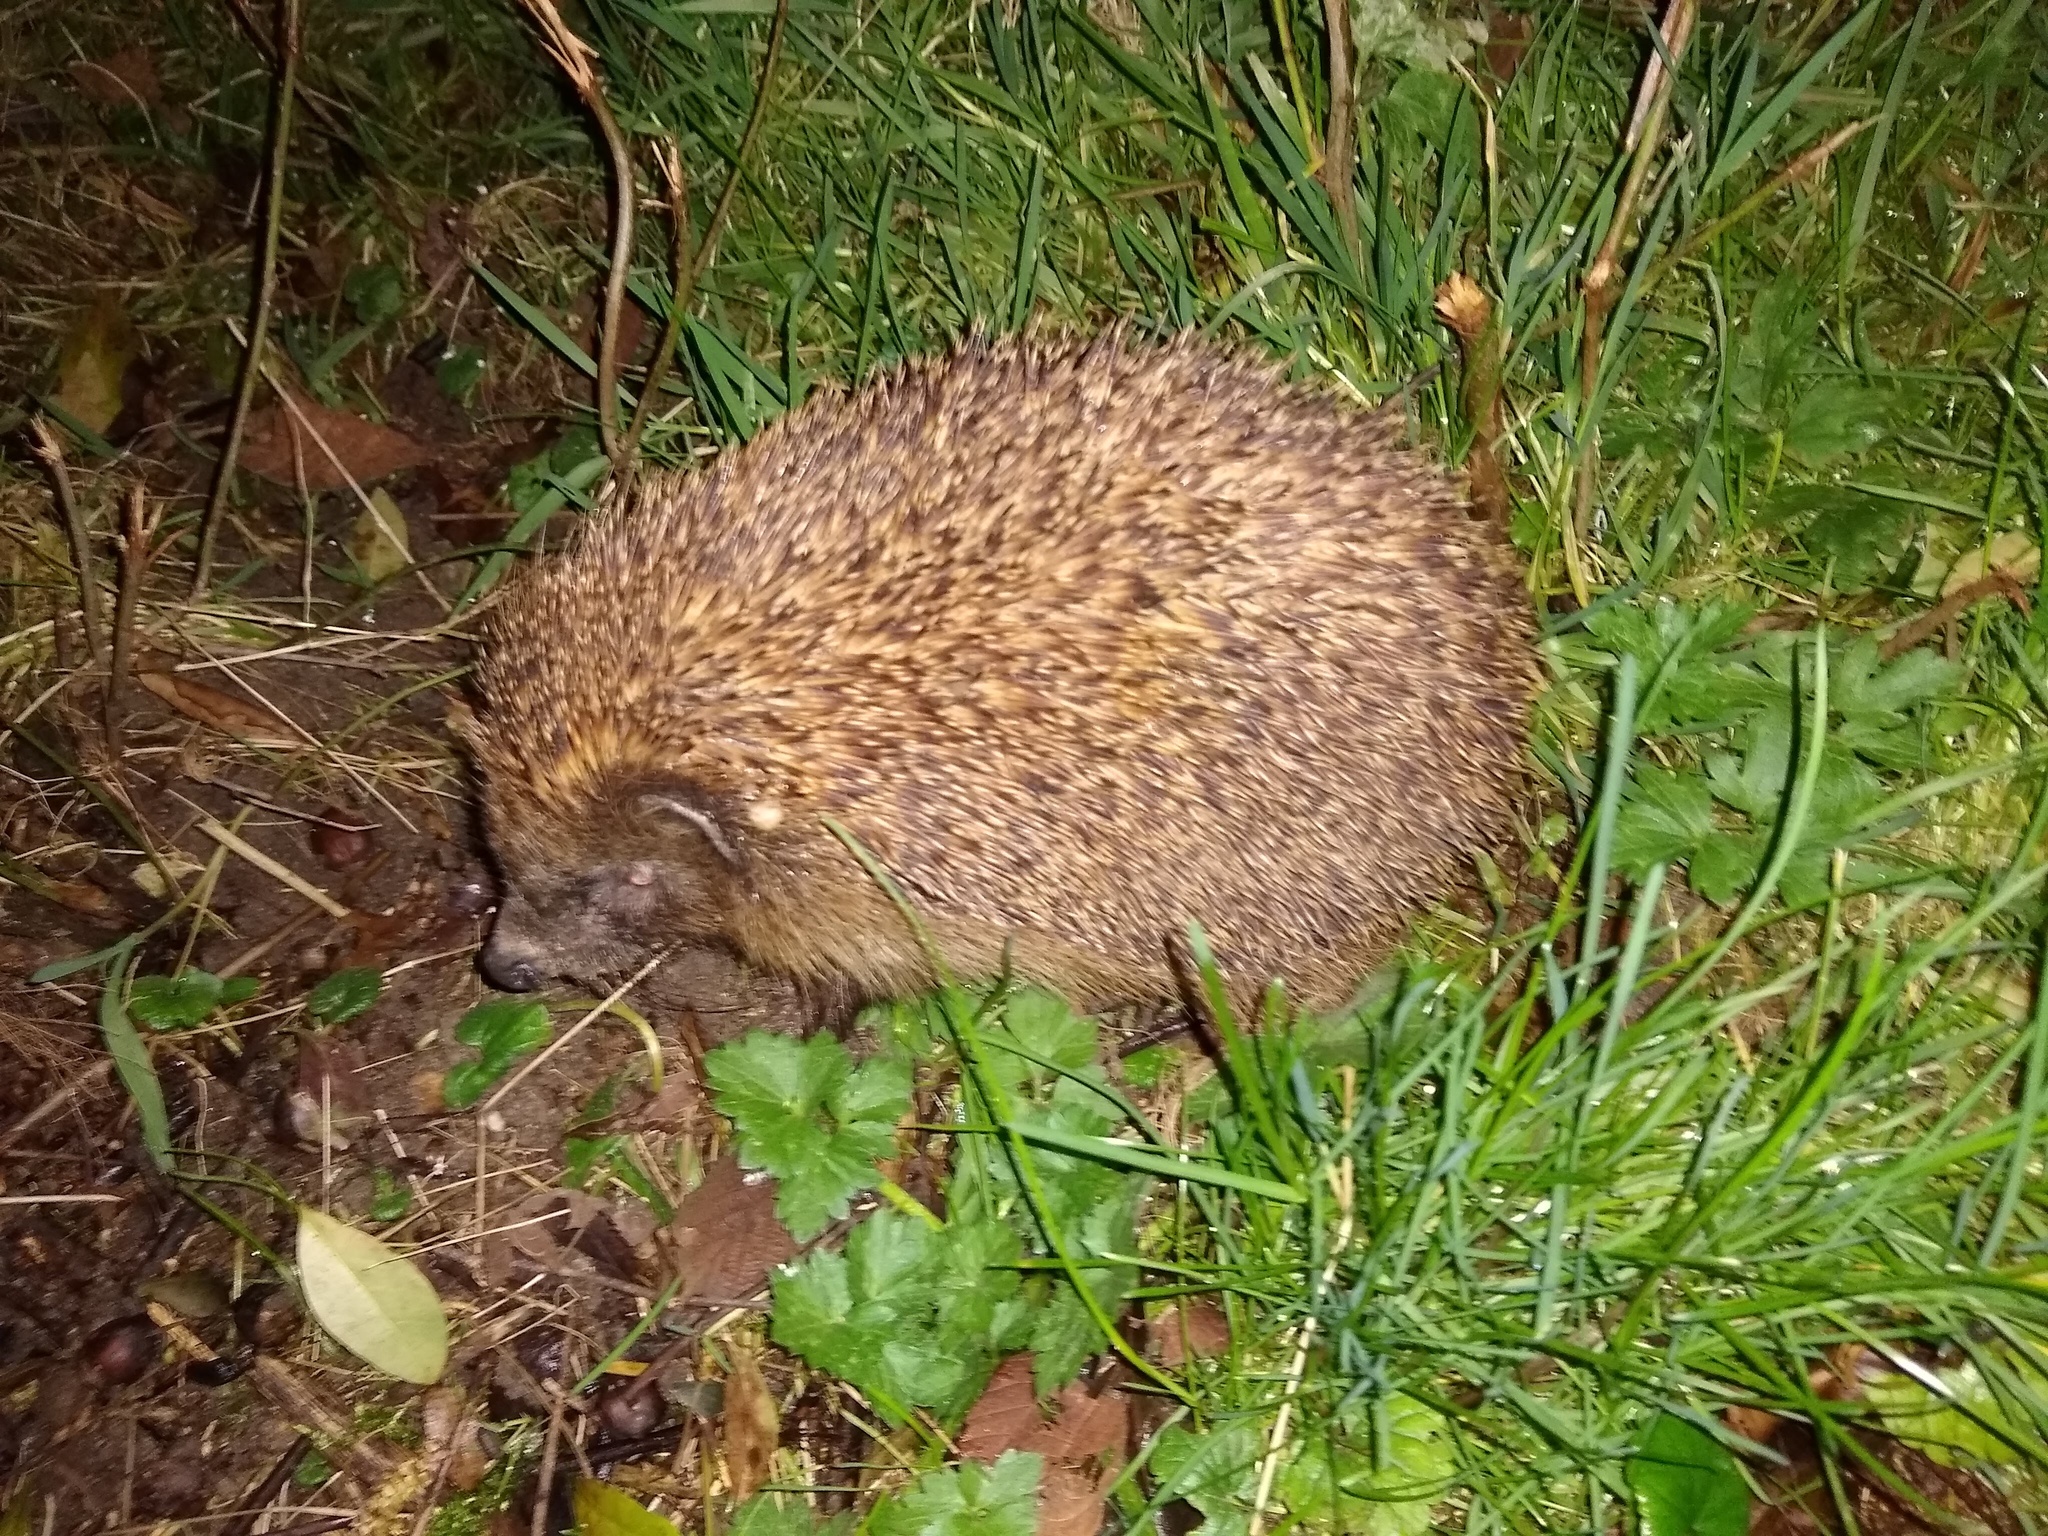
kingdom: Animalia
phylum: Chordata
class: Mammalia
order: Erinaceomorpha
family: Erinaceidae
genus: Erinaceus
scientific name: Erinaceus europaeus
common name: West european hedgehog
